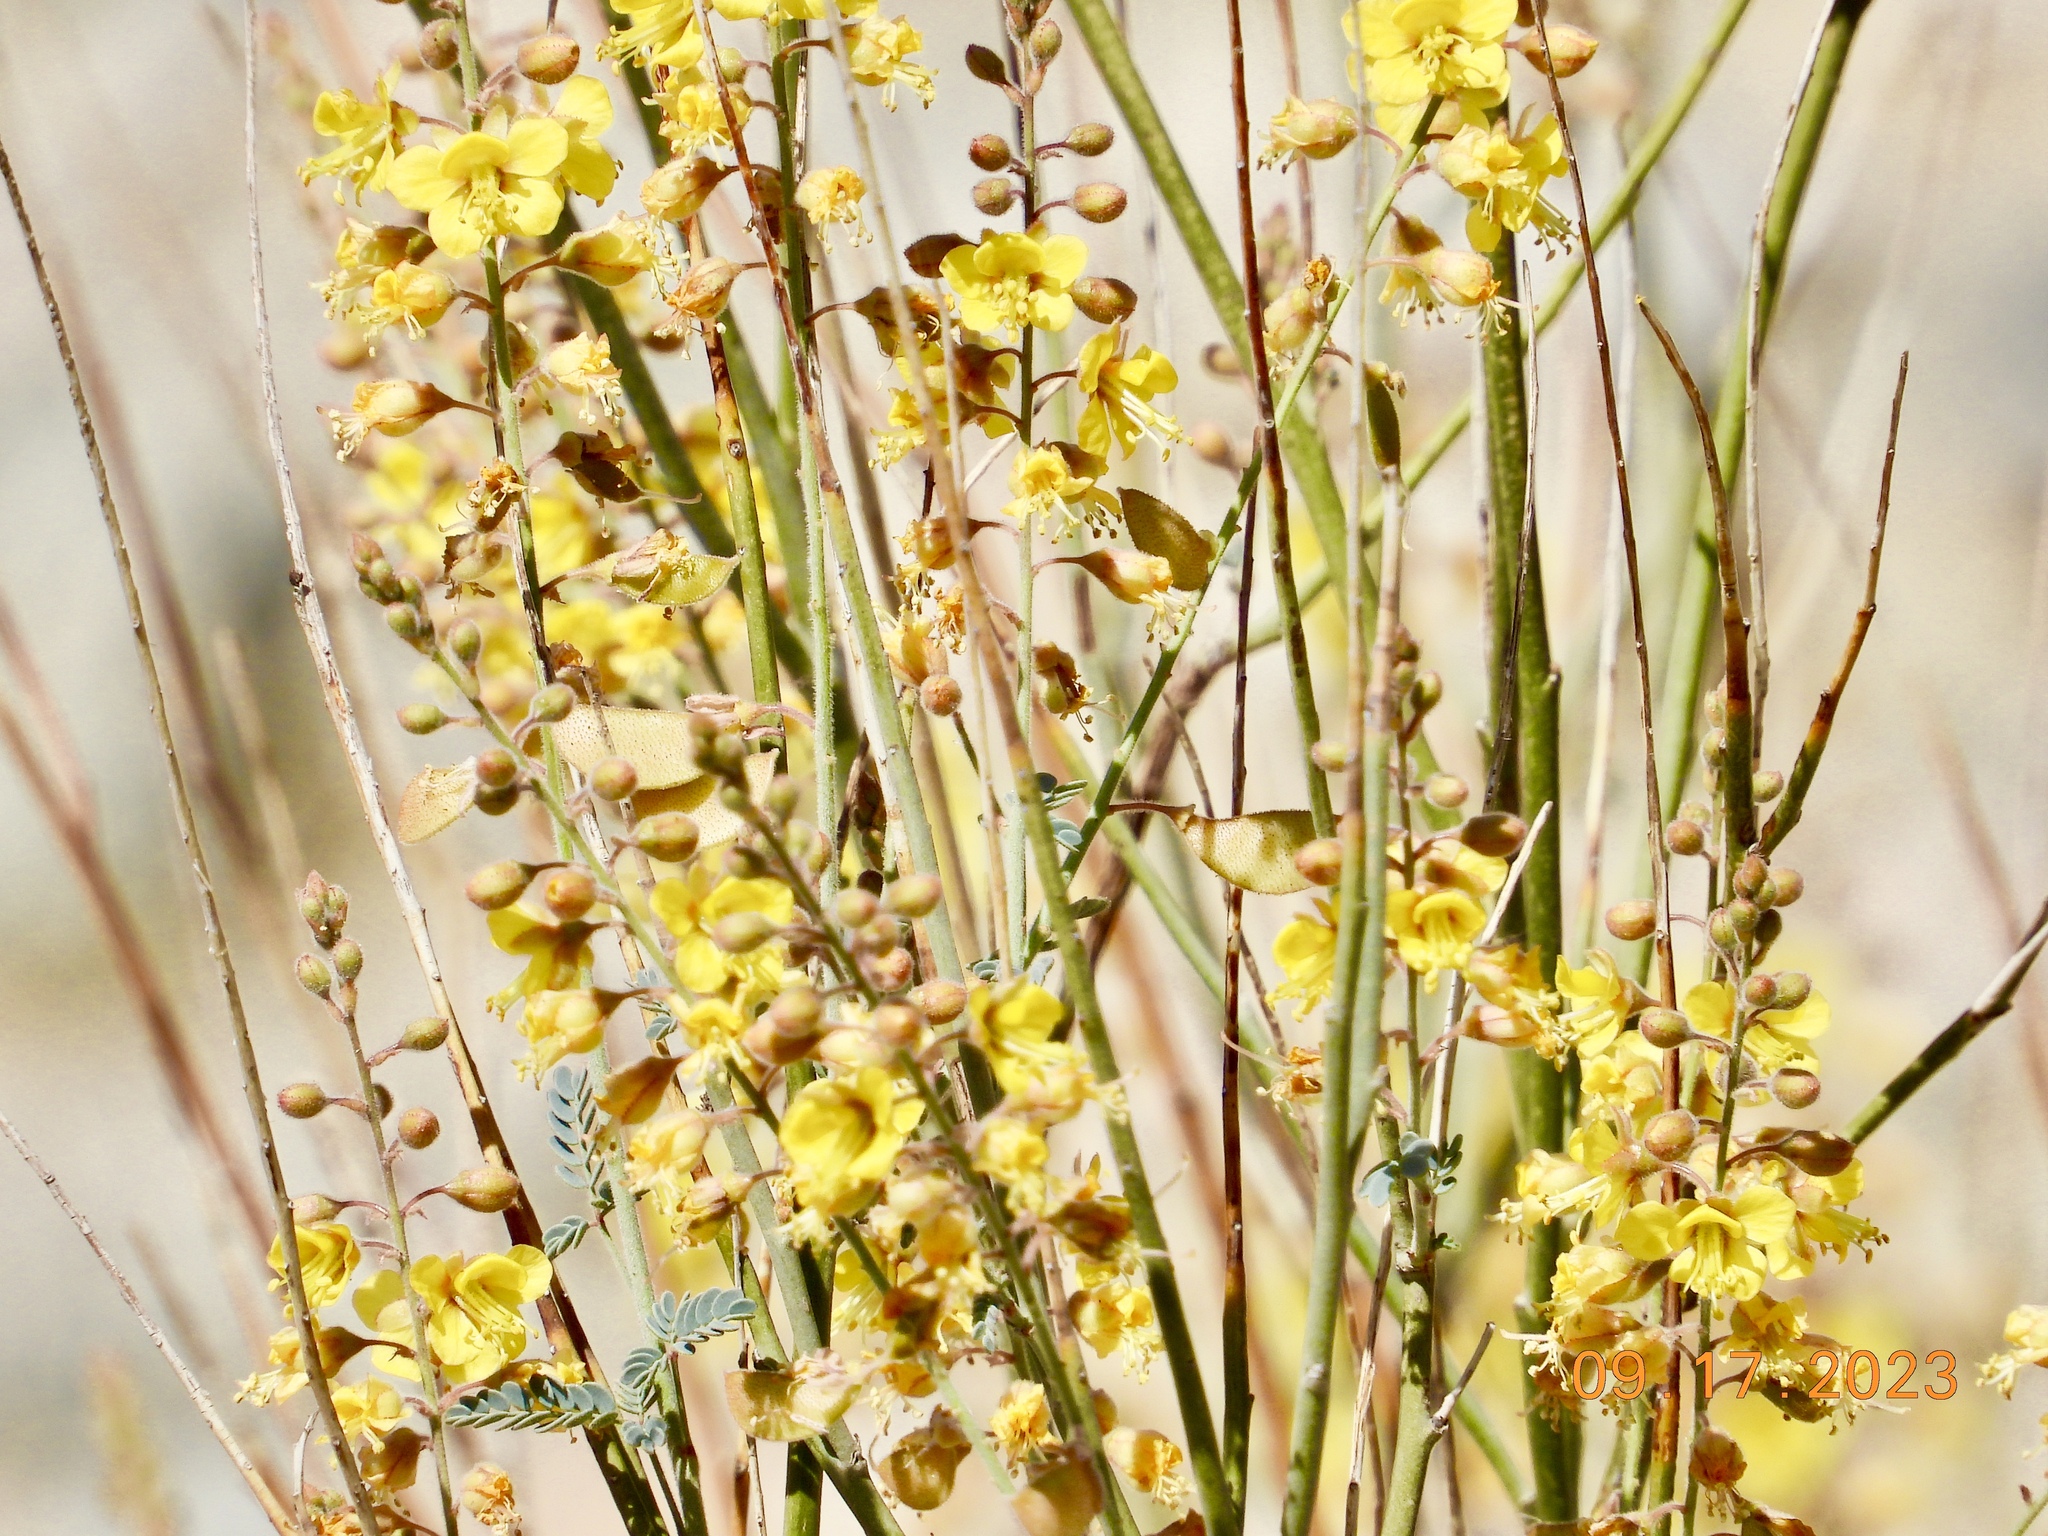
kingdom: Plantae
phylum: Tracheophyta
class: Magnoliopsida
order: Fabales
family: Fabaceae
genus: Hoffmannseggia
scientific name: Hoffmannseggia microphylla
